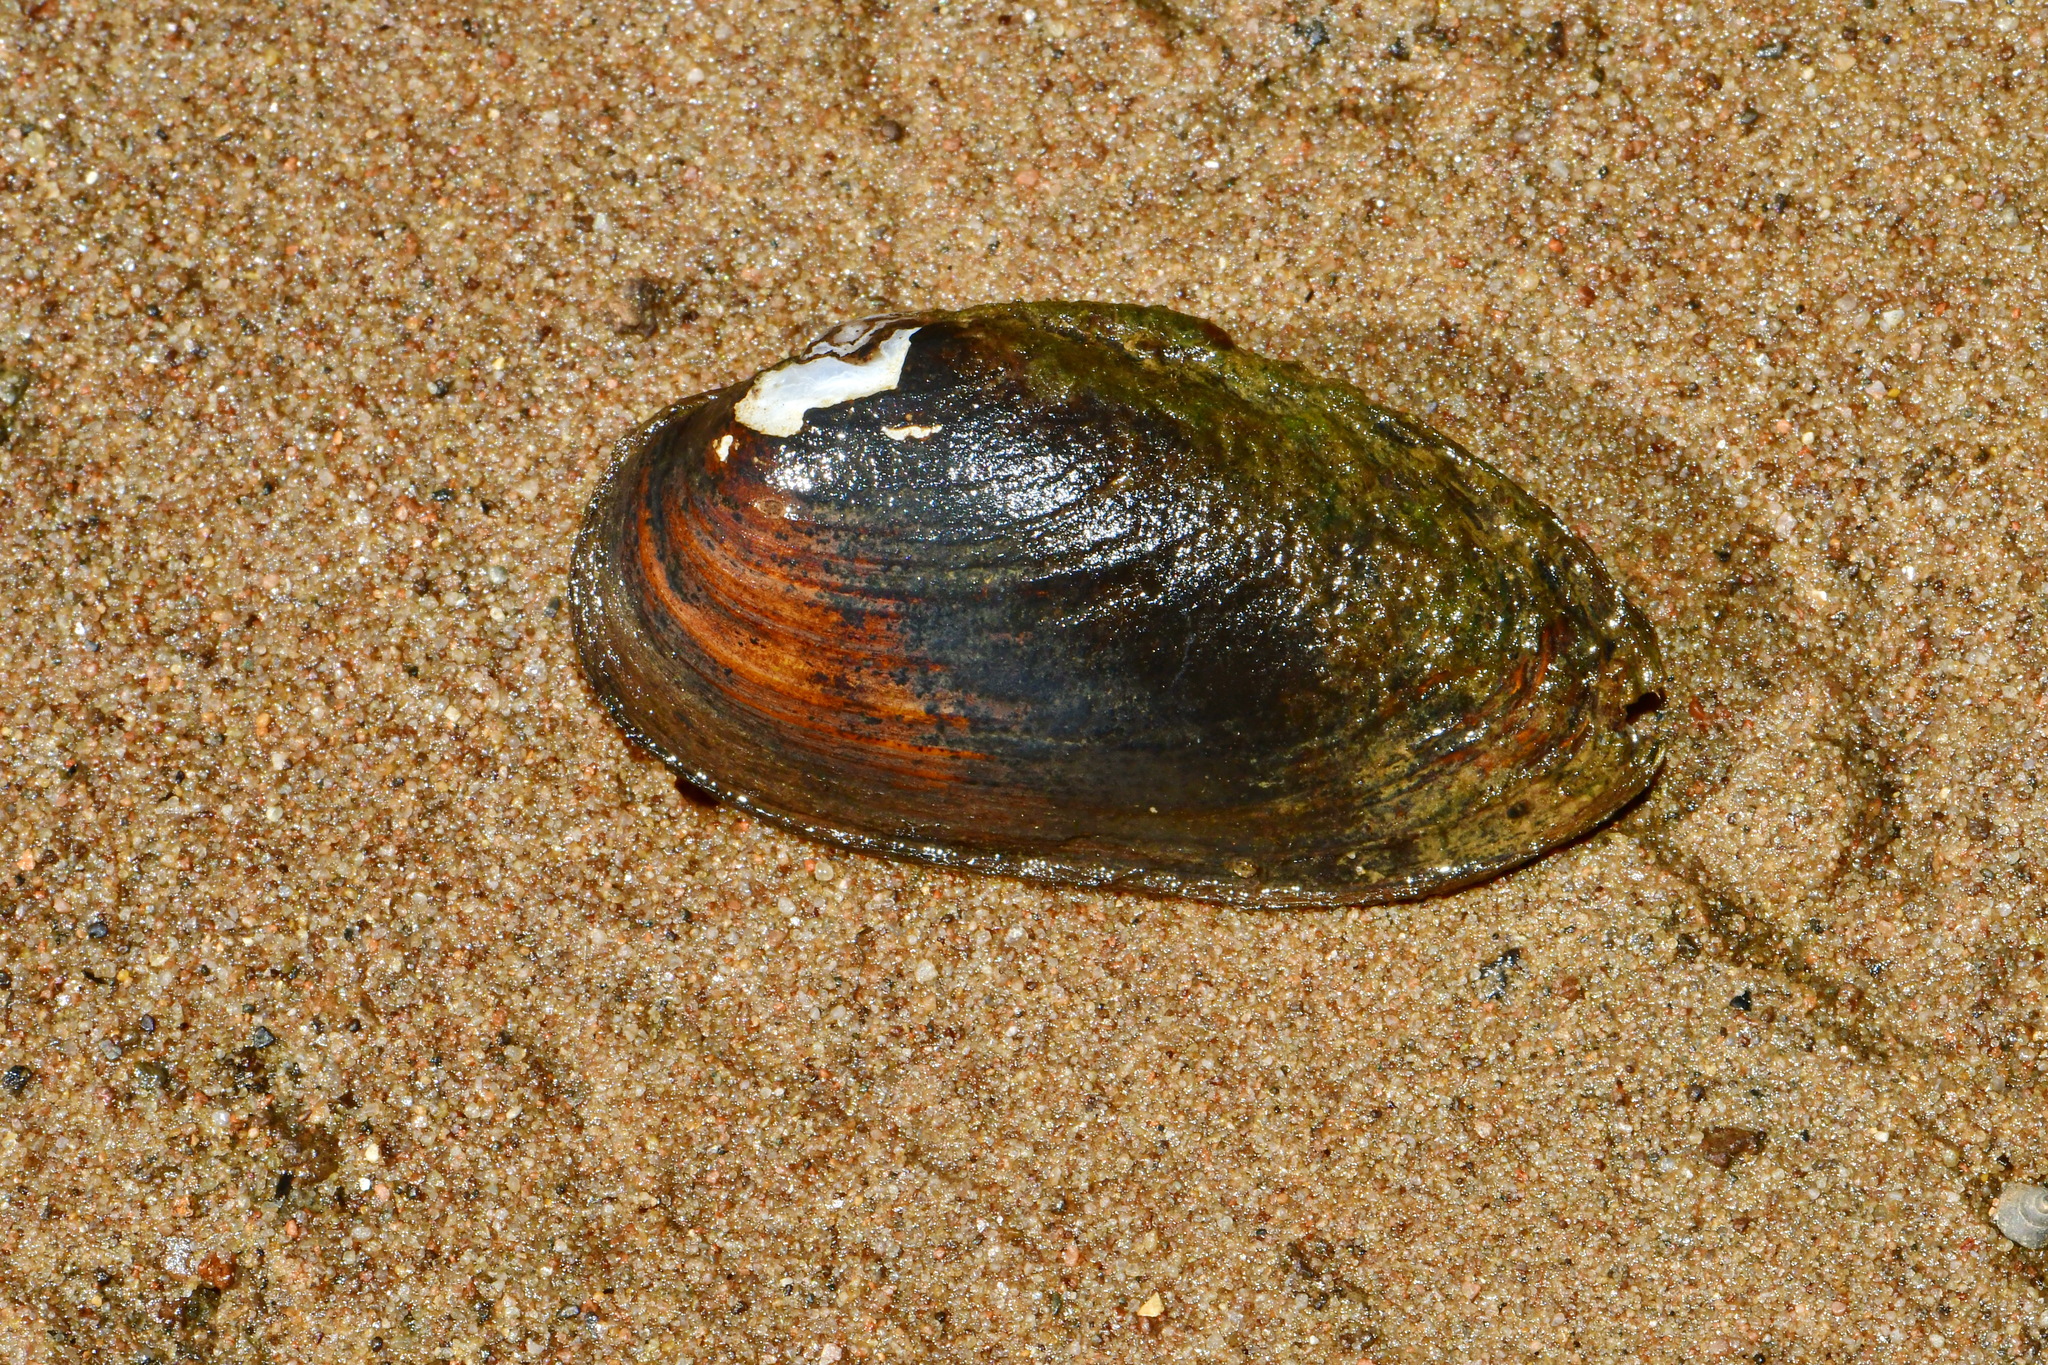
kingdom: Animalia
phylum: Mollusca
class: Bivalvia
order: Unionida
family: Unionidae
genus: Unio
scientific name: Unio crassus
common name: Thick shelled river mussel
